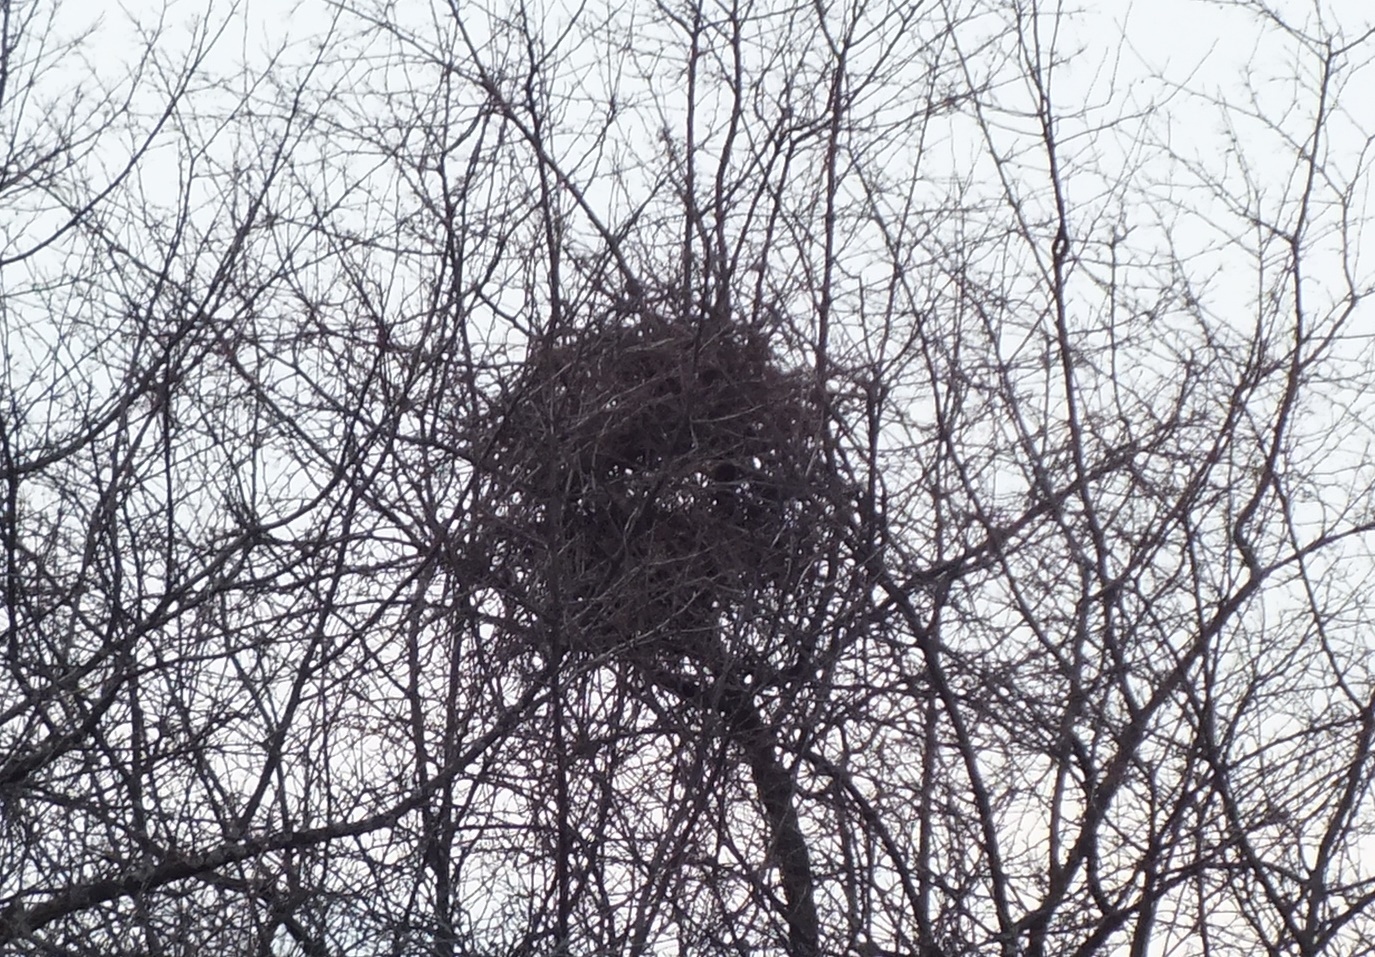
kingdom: Animalia
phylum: Chordata
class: Aves
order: Passeriformes
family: Corvidae
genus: Pica
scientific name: Pica pica
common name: Eurasian magpie
